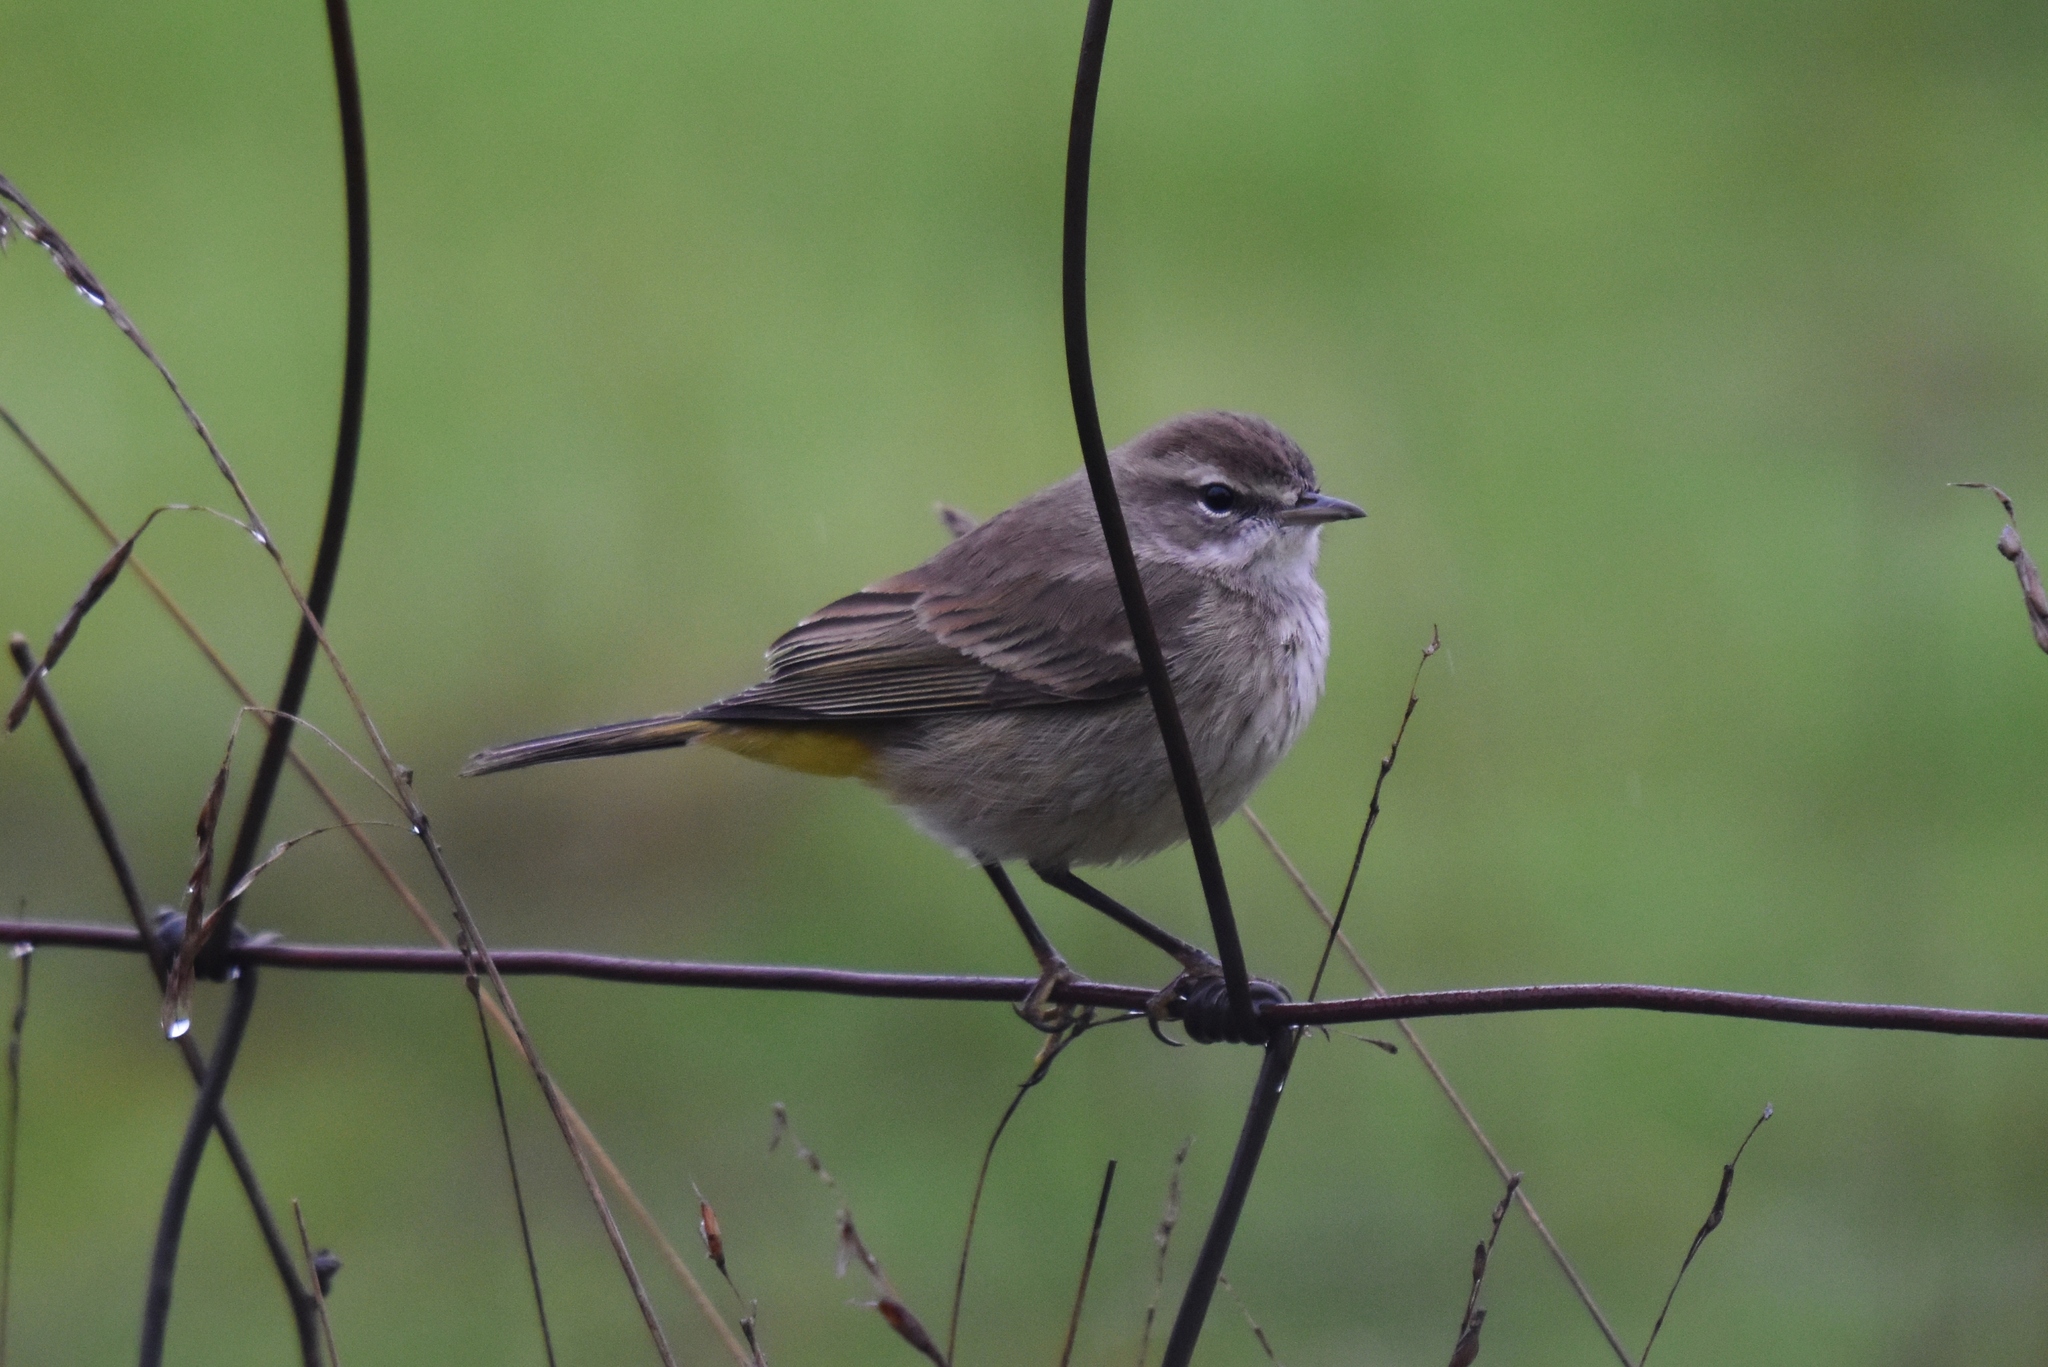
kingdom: Animalia
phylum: Chordata
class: Aves
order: Passeriformes
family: Parulidae
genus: Setophaga
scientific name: Setophaga palmarum
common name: Palm warbler
